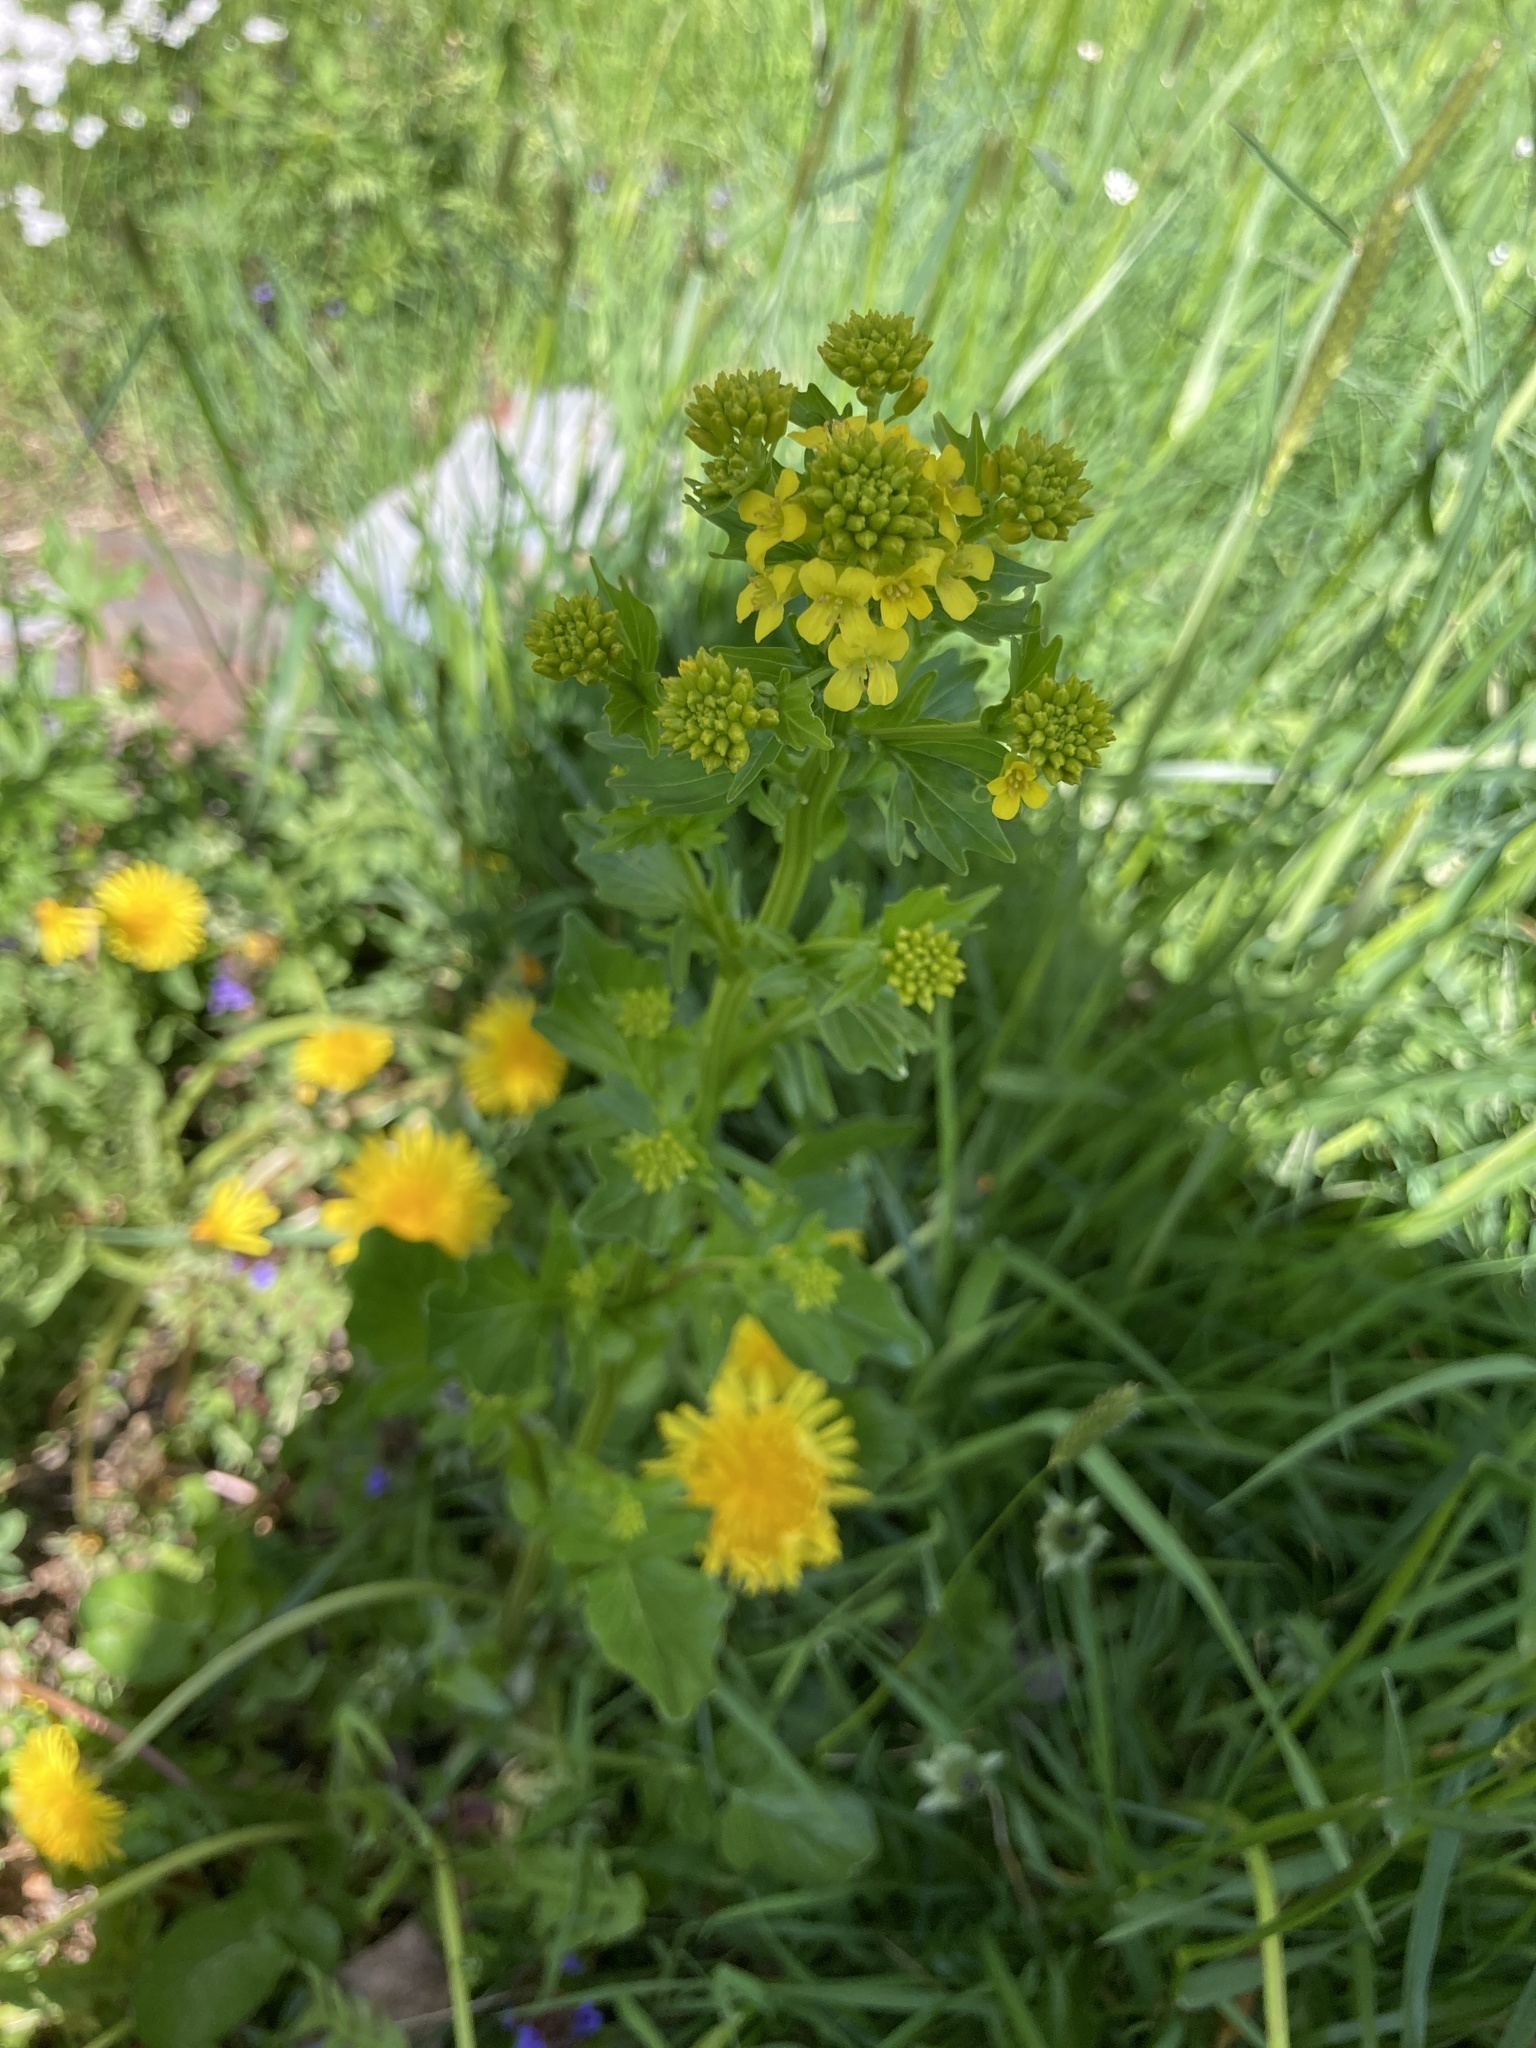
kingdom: Plantae
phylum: Tracheophyta
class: Magnoliopsida
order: Brassicales
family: Brassicaceae
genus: Barbarea
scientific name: Barbarea vulgaris
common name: Cressy-greens
